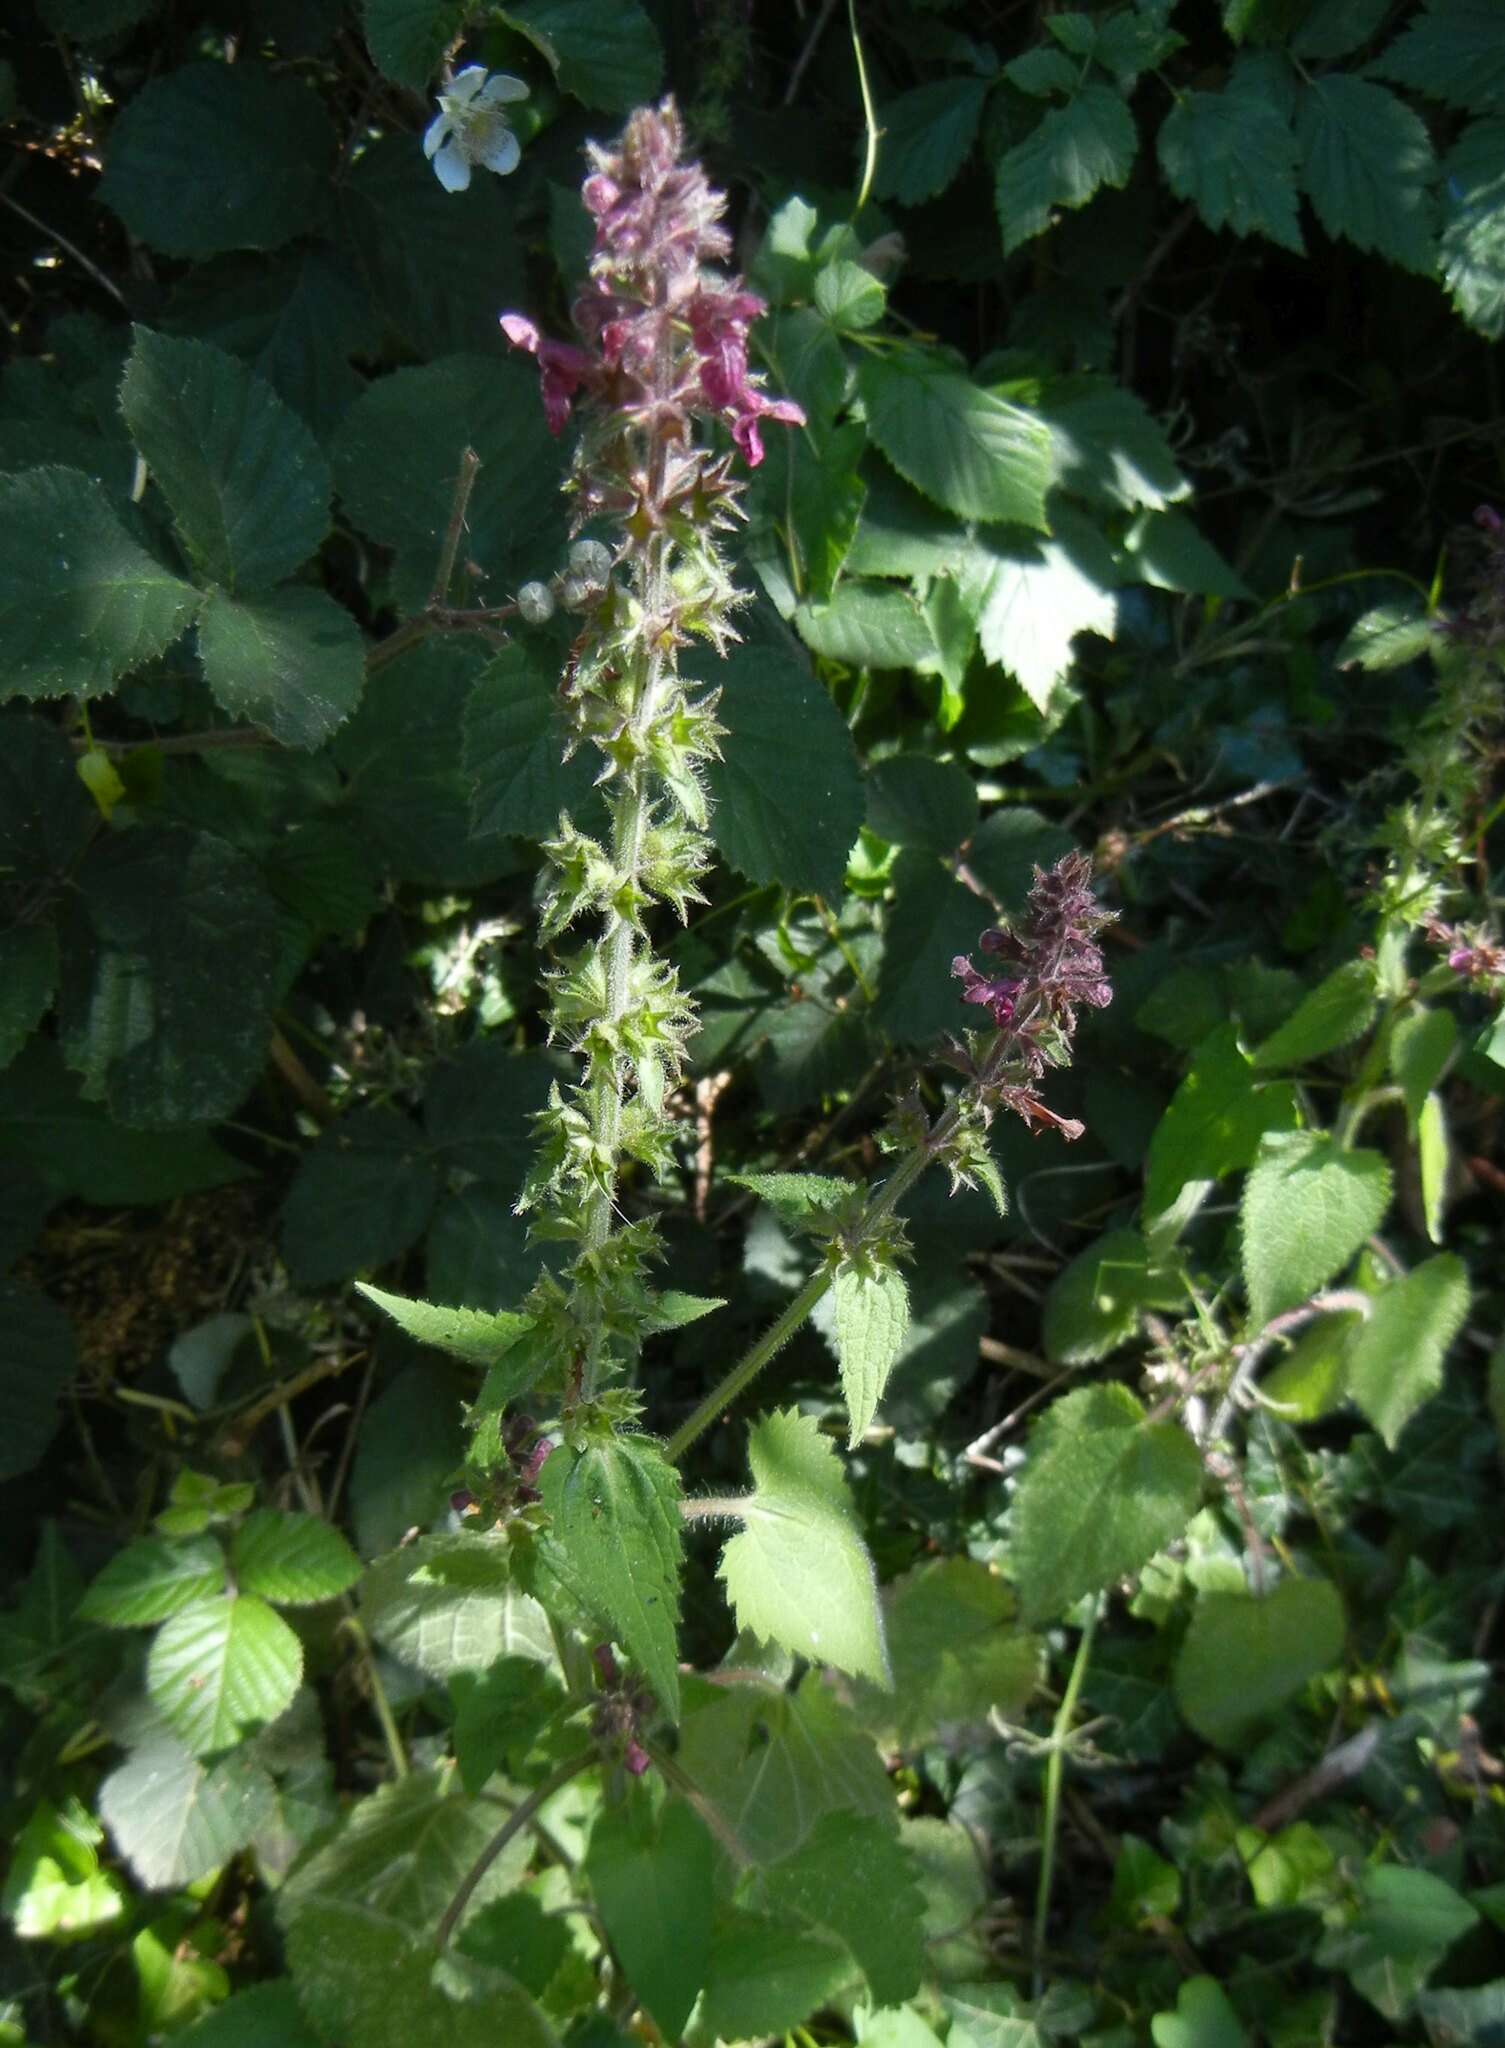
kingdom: Plantae
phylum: Tracheophyta
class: Magnoliopsida
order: Lamiales
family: Lamiaceae
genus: Stachys
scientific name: Stachys sylvatica
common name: Hedge woundwort
